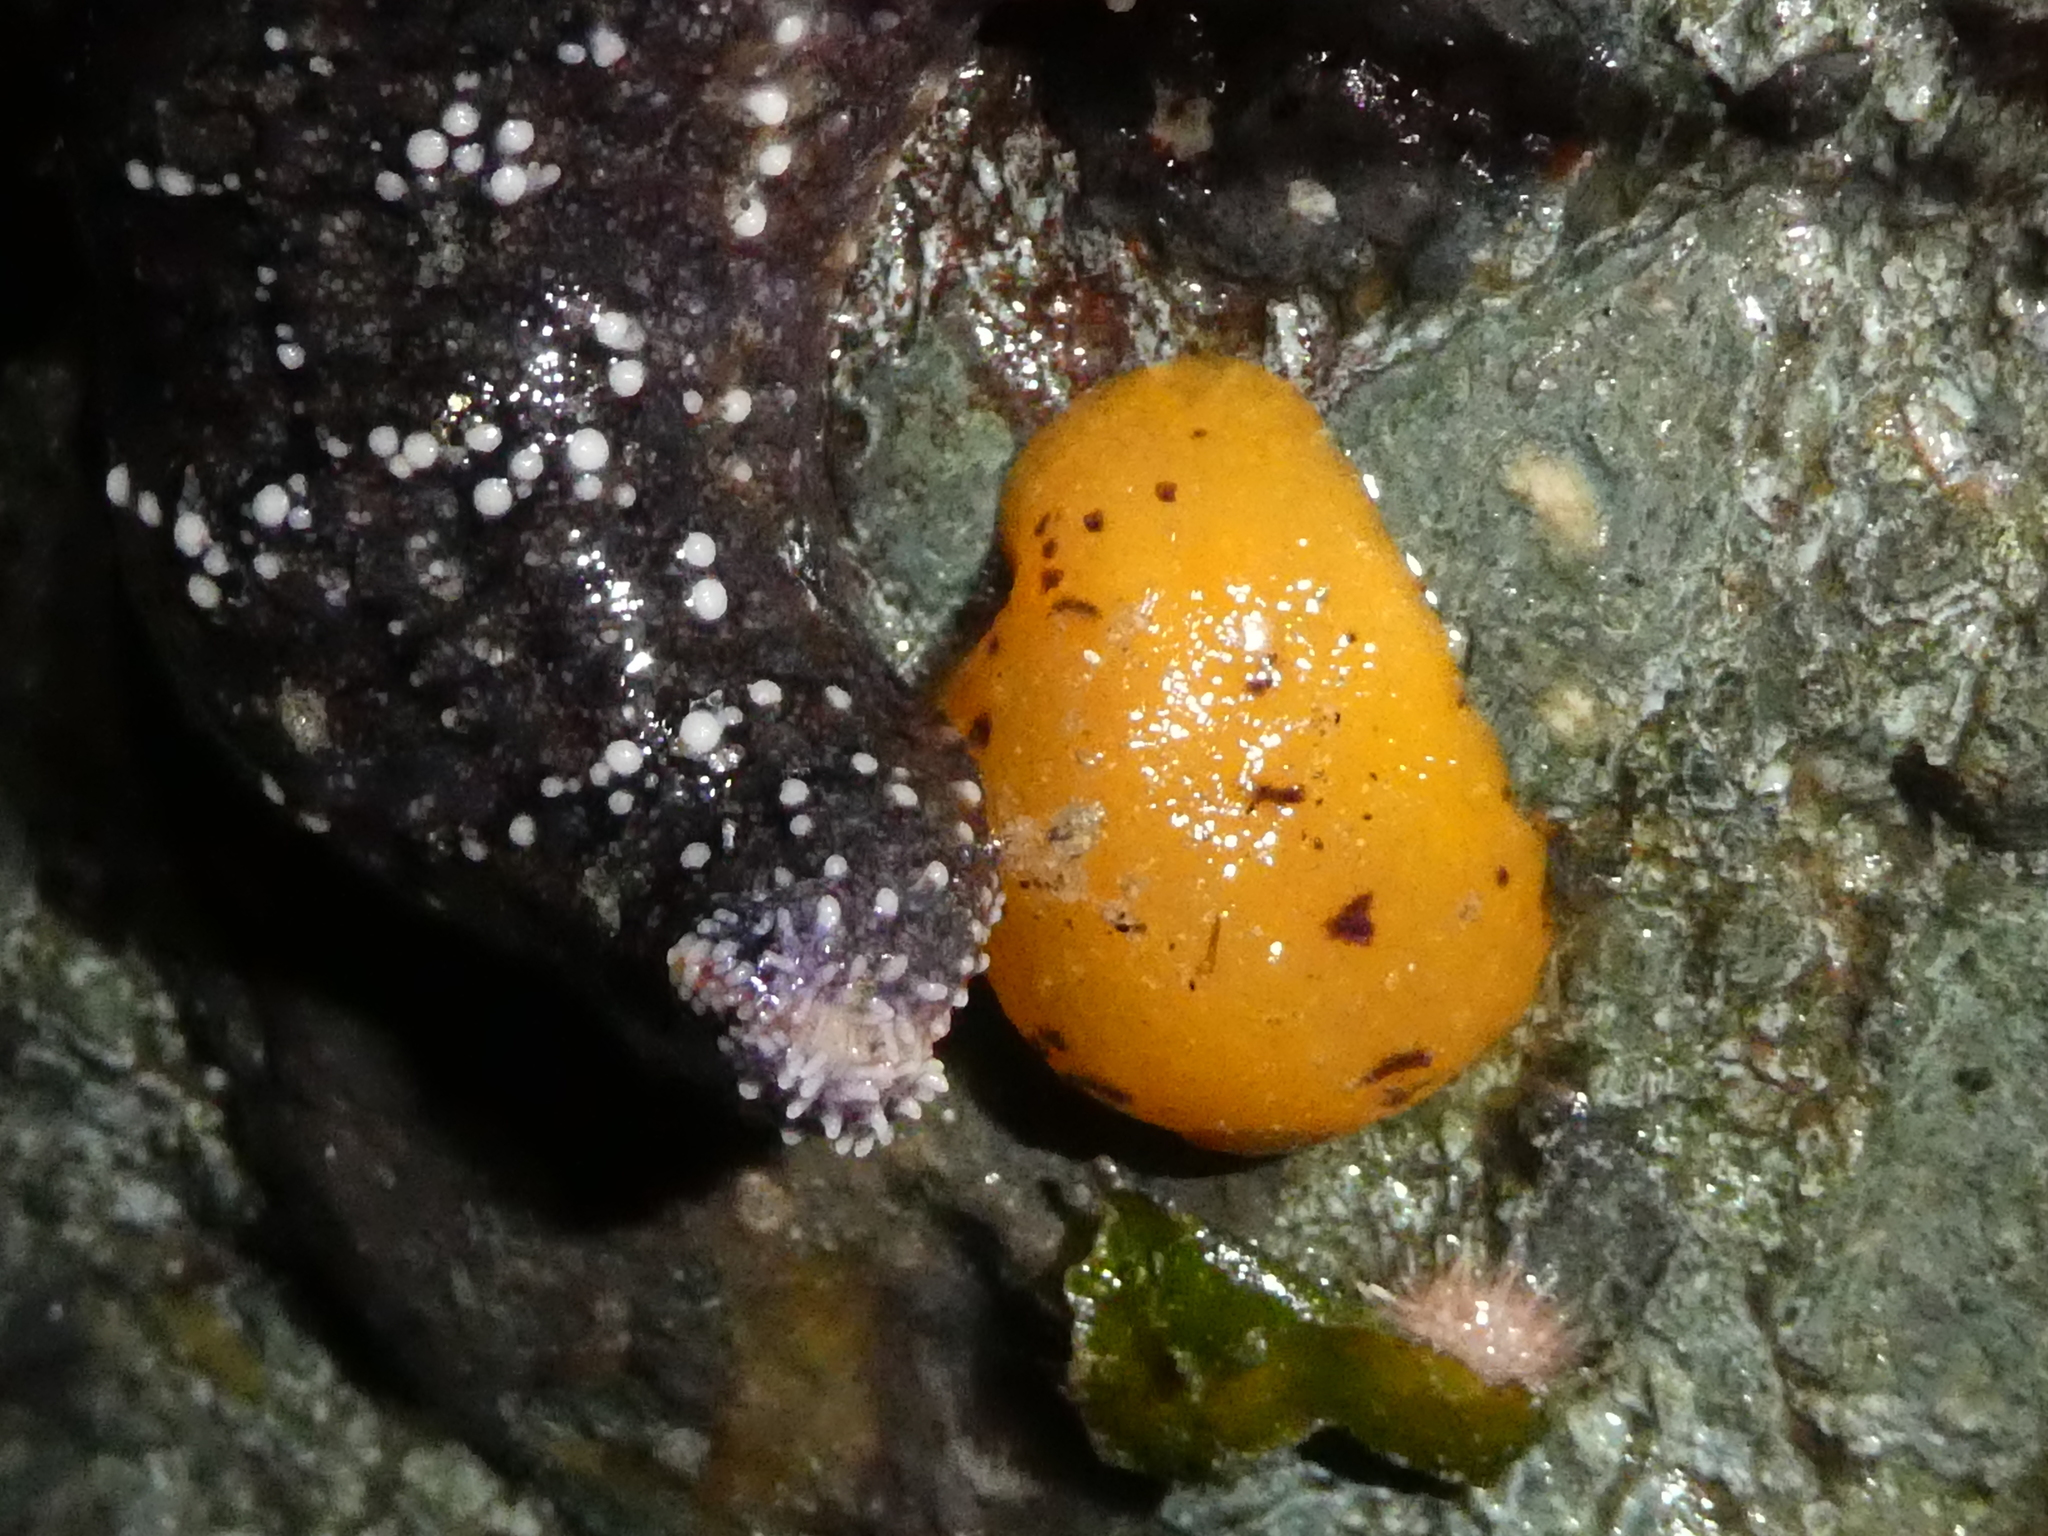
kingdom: Animalia
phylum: Mollusca
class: Gastropoda
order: Nudibranchia
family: Dorididae
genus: Doris
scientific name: Doris montereyensis
